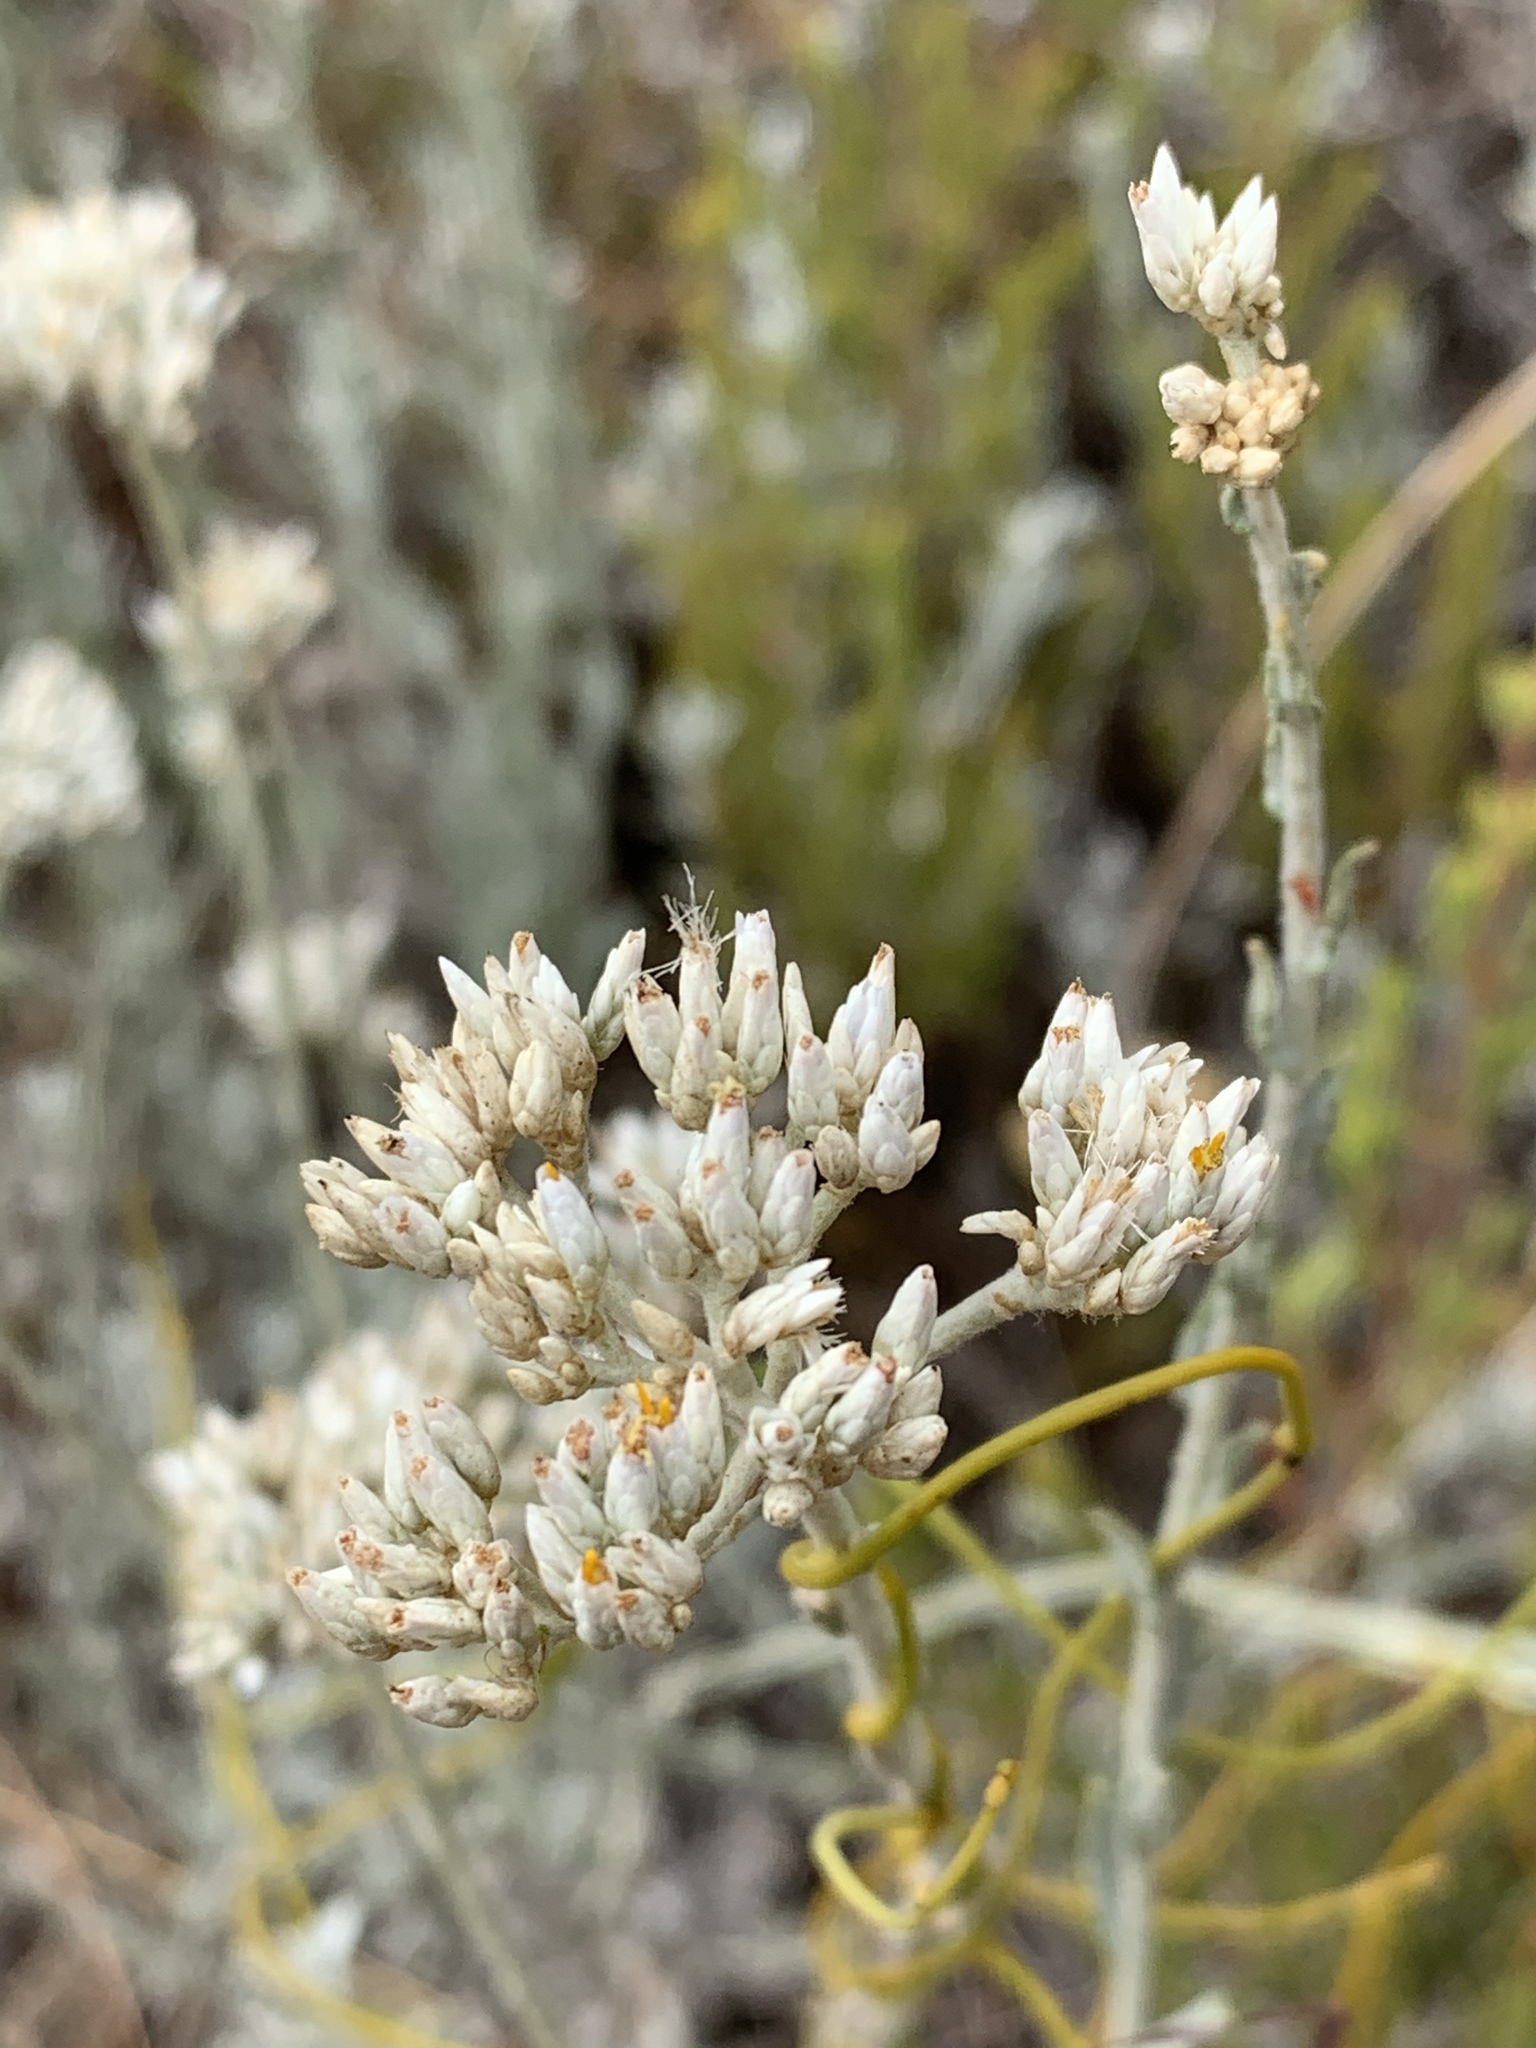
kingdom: Plantae
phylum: Tracheophyta
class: Magnoliopsida
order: Asterales
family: Asteraceae
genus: Helichrysum
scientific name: Helichrysum zeyheri
